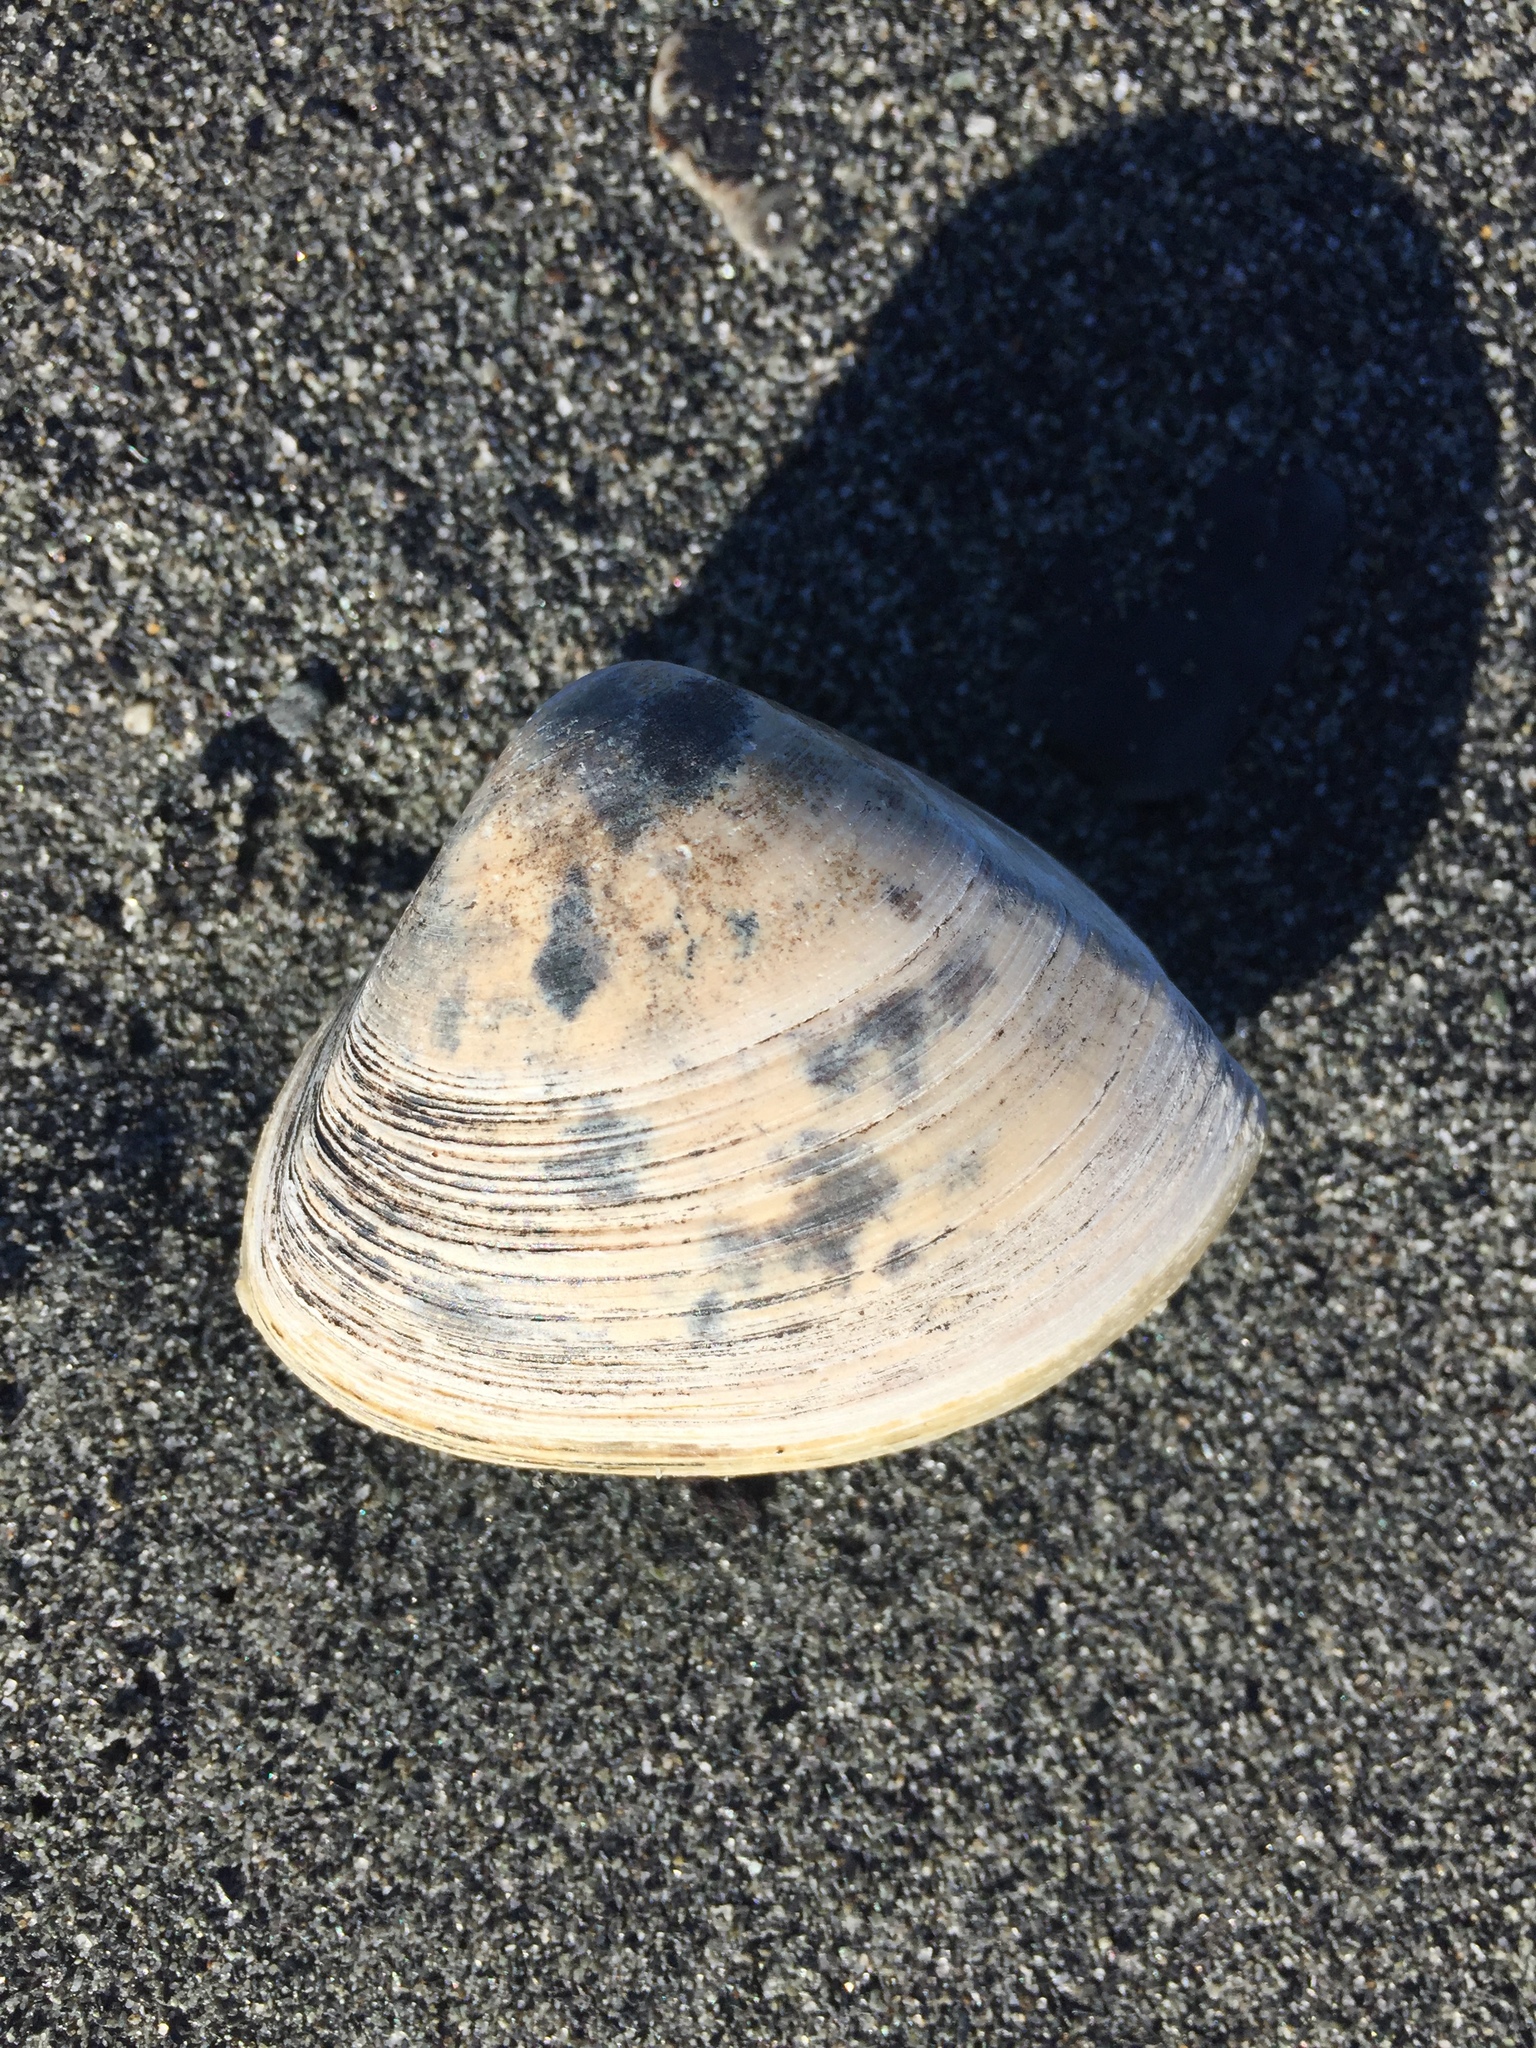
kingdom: Animalia
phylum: Mollusca
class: Bivalvia
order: Venerida
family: Mactridae
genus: Crassula
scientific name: Crassula aequilatera
